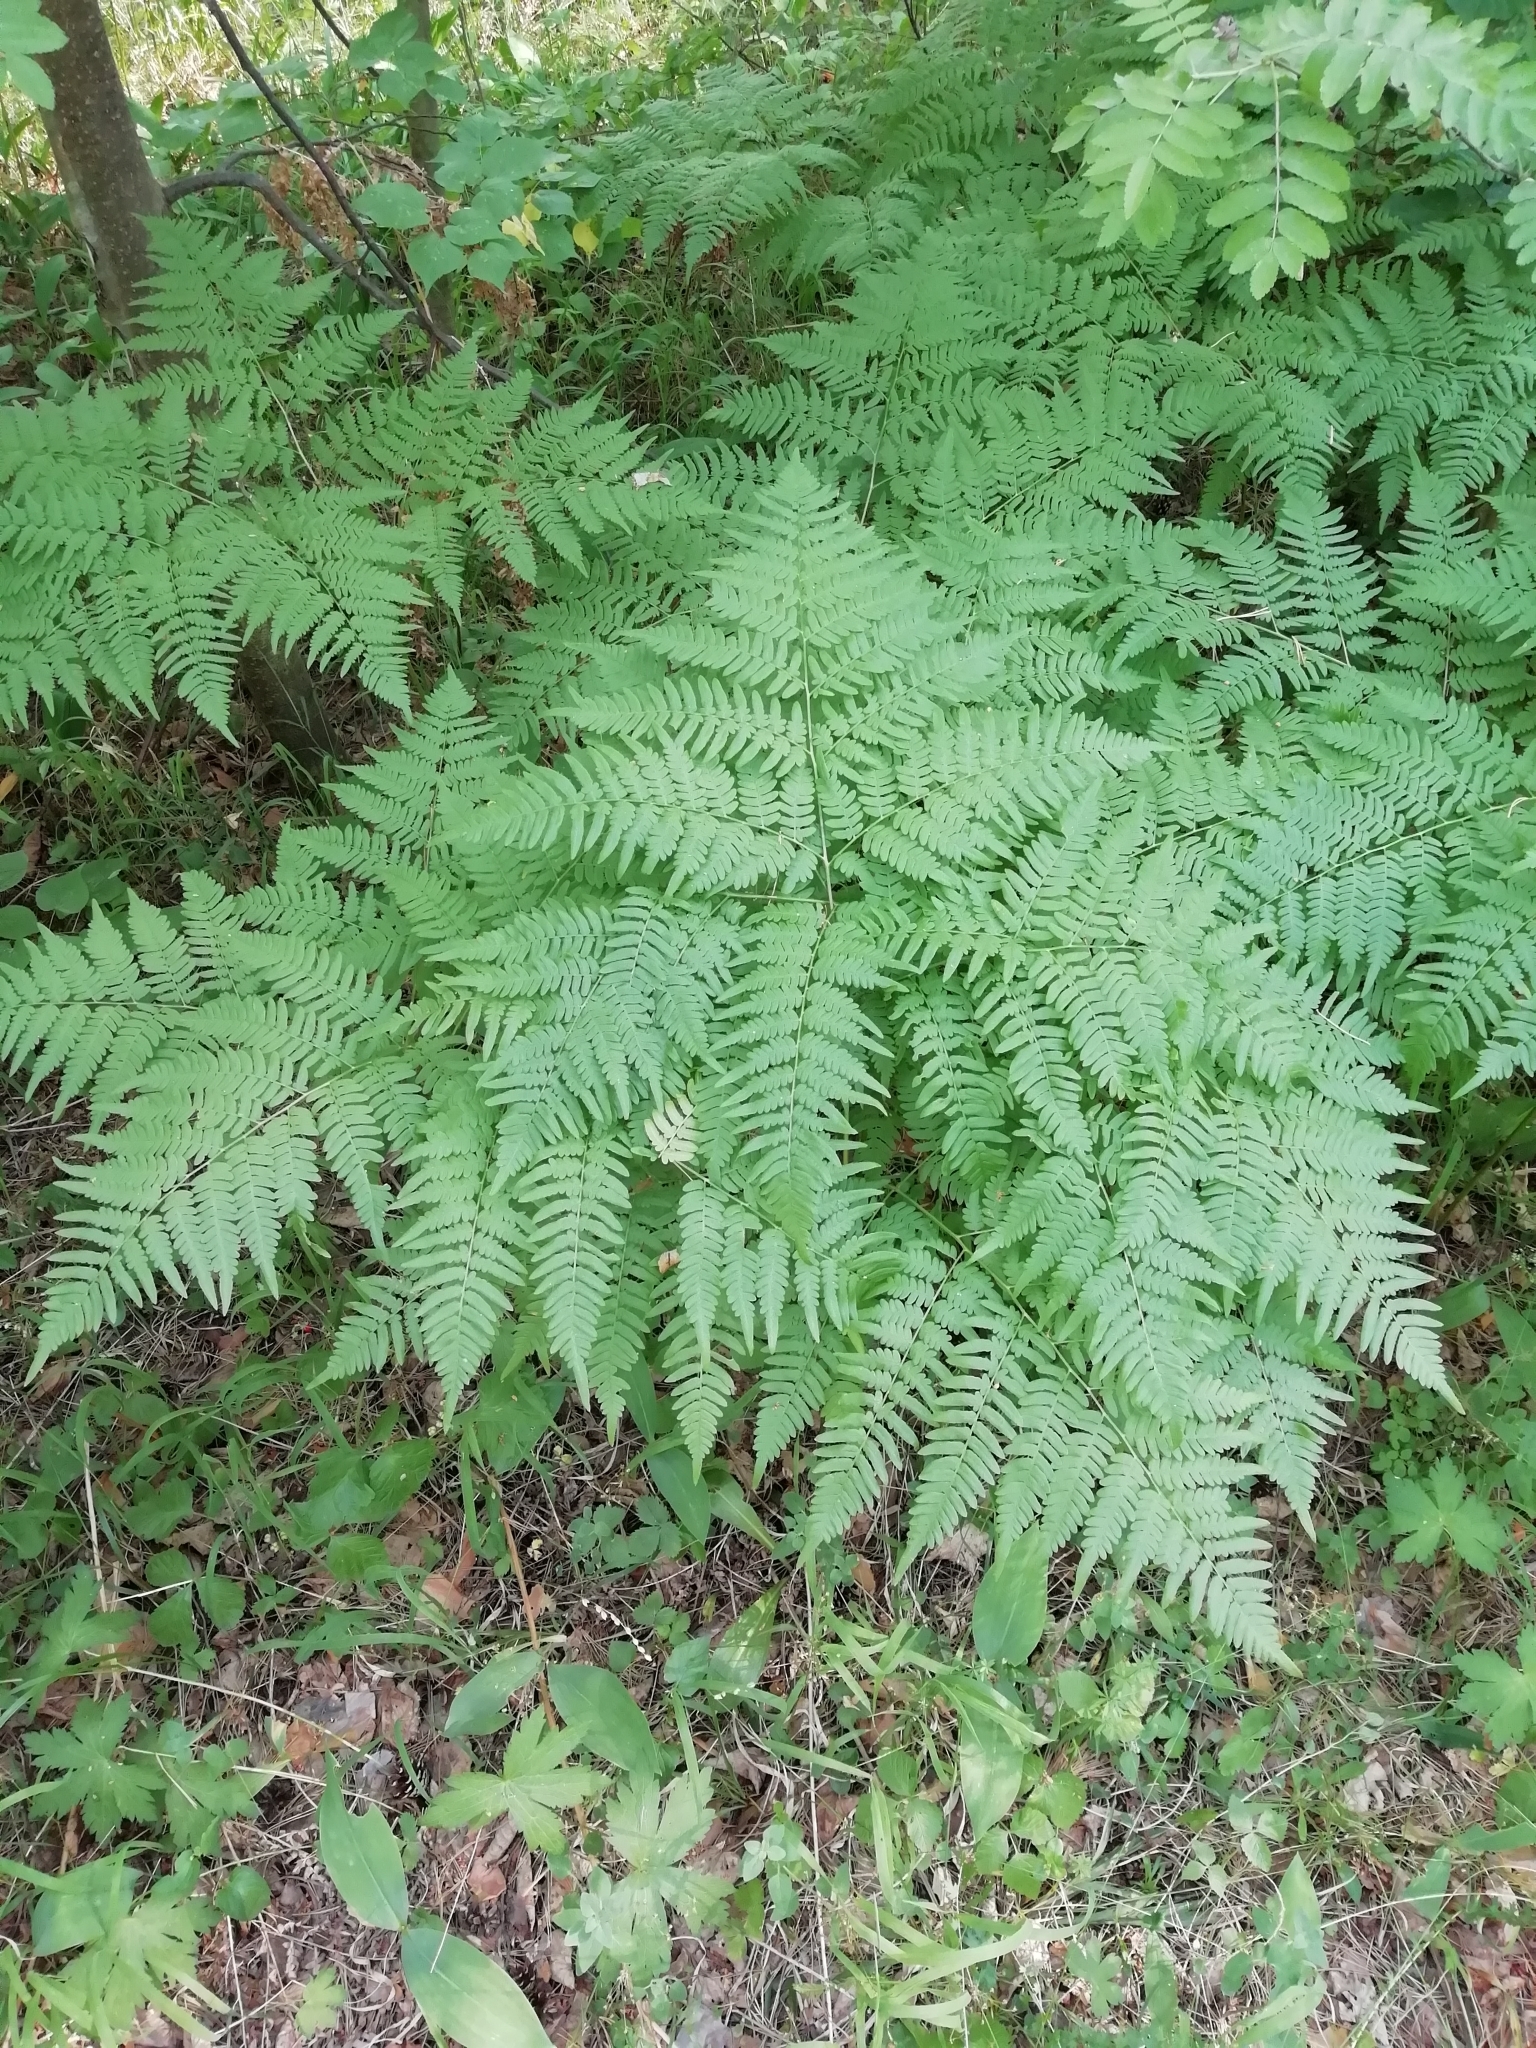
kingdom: Plantae
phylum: Tracheophyta
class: Polypodiopsida
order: Polypodiales
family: Dennstaedtiaceae
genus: Pteridium
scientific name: Pteridium aquilinum
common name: Bracken
